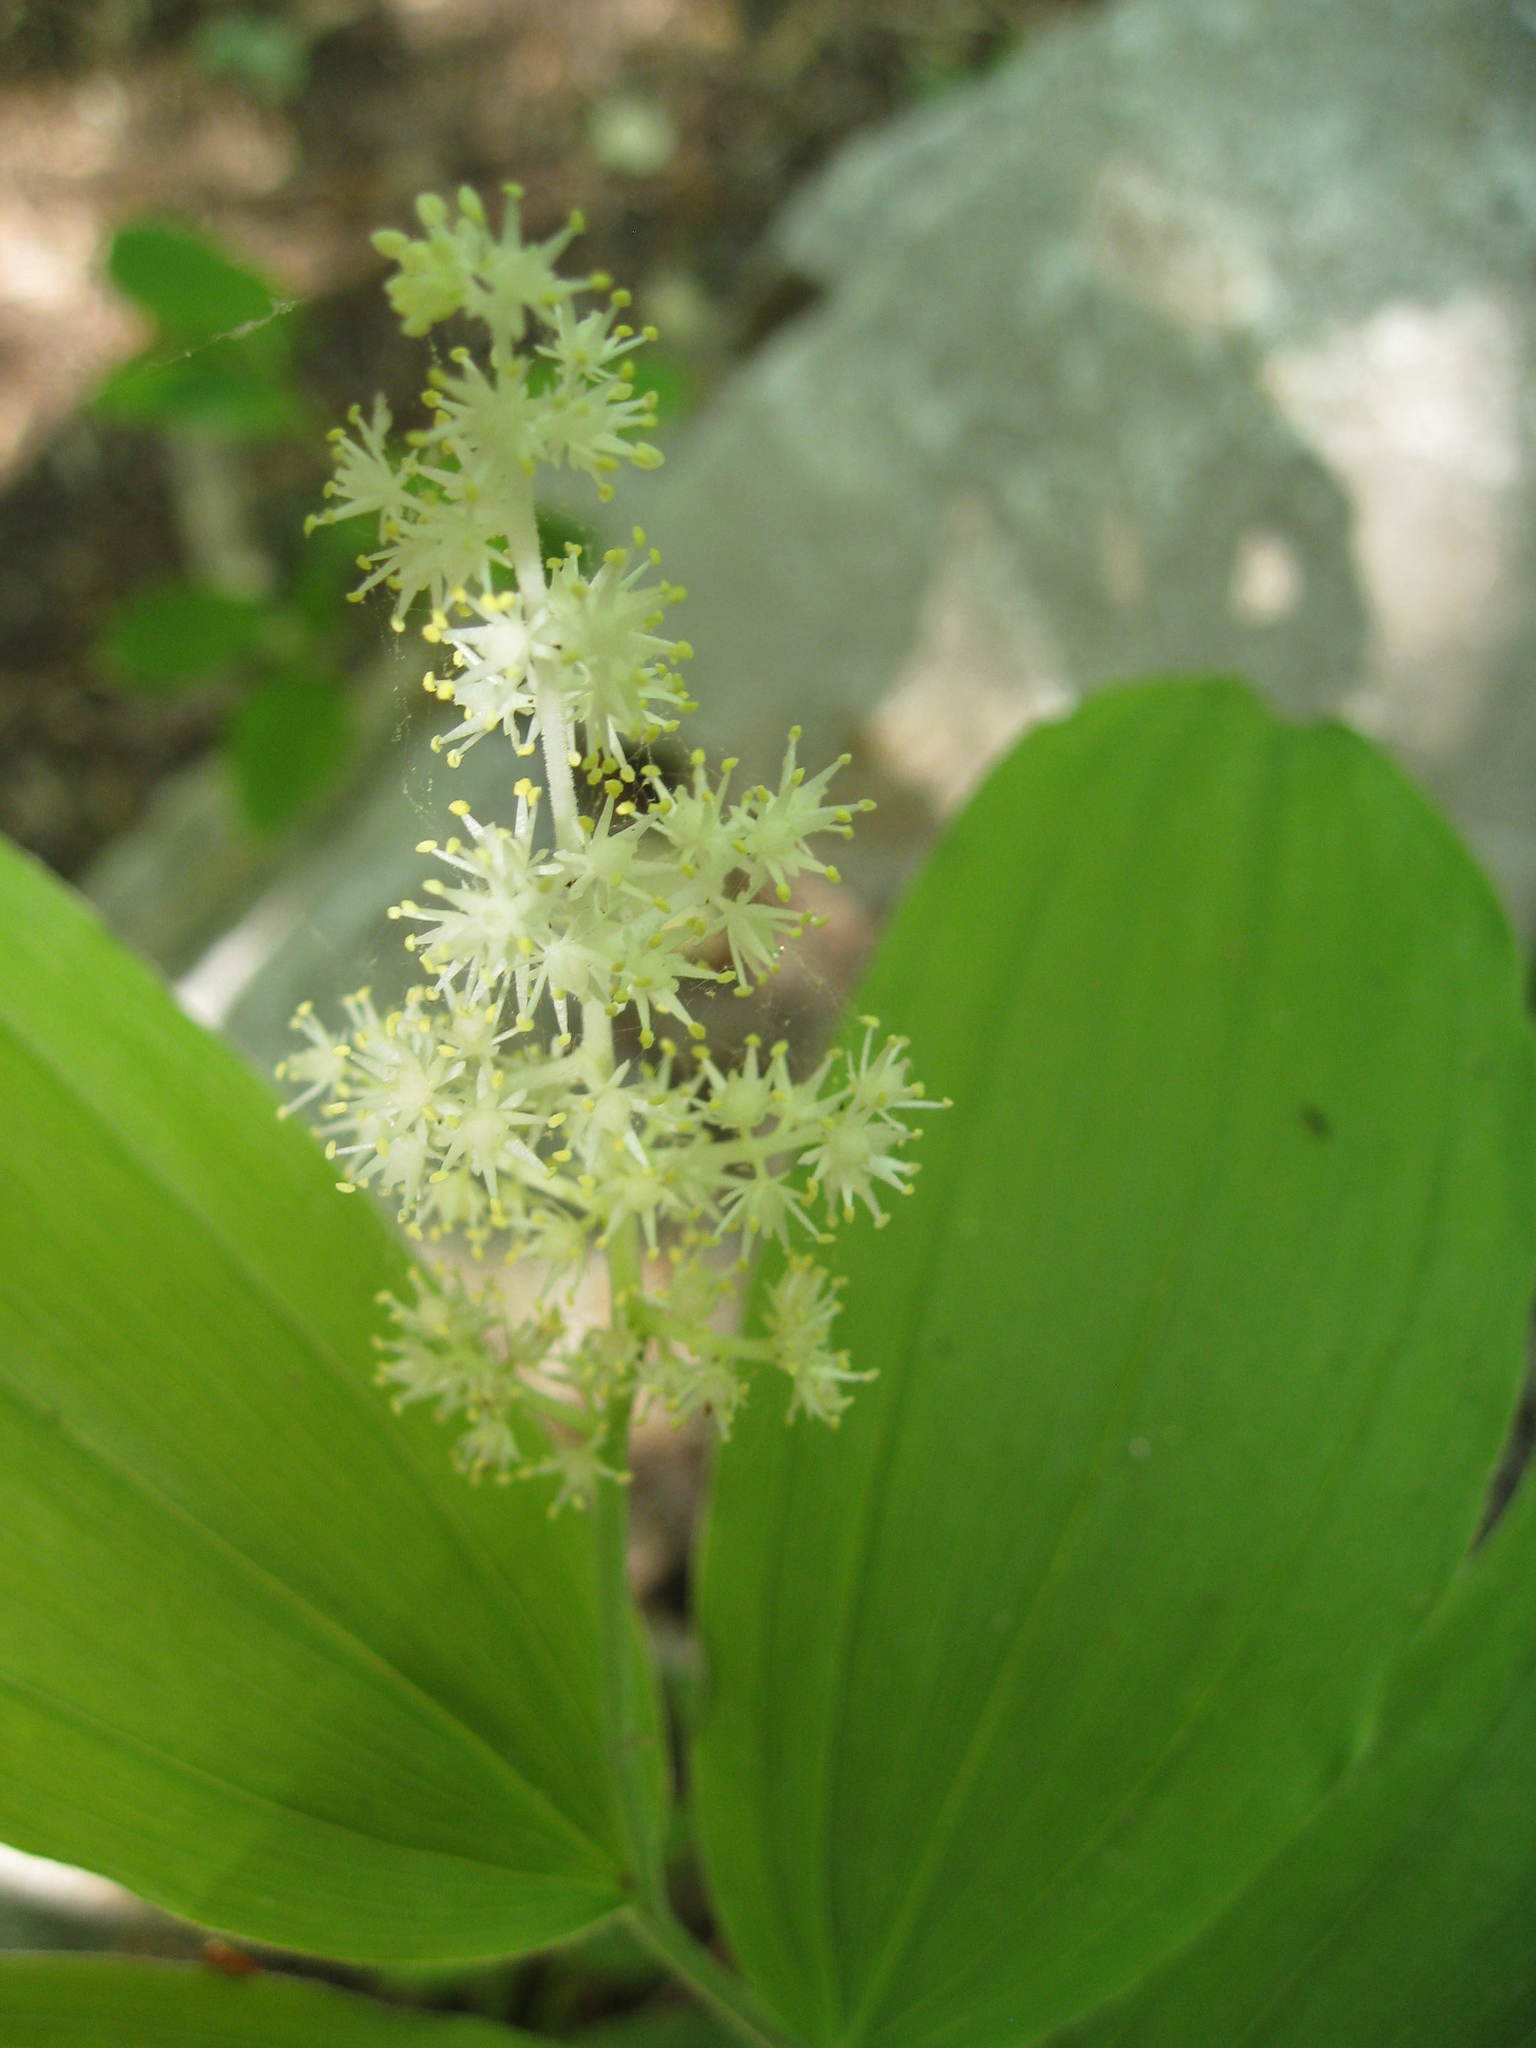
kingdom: Plantae
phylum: Tracheophyta
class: Liliopsida
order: Asparagales
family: Asparagaceae
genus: Maianthemum
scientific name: Maianthemum racemosum
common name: False spikenard
